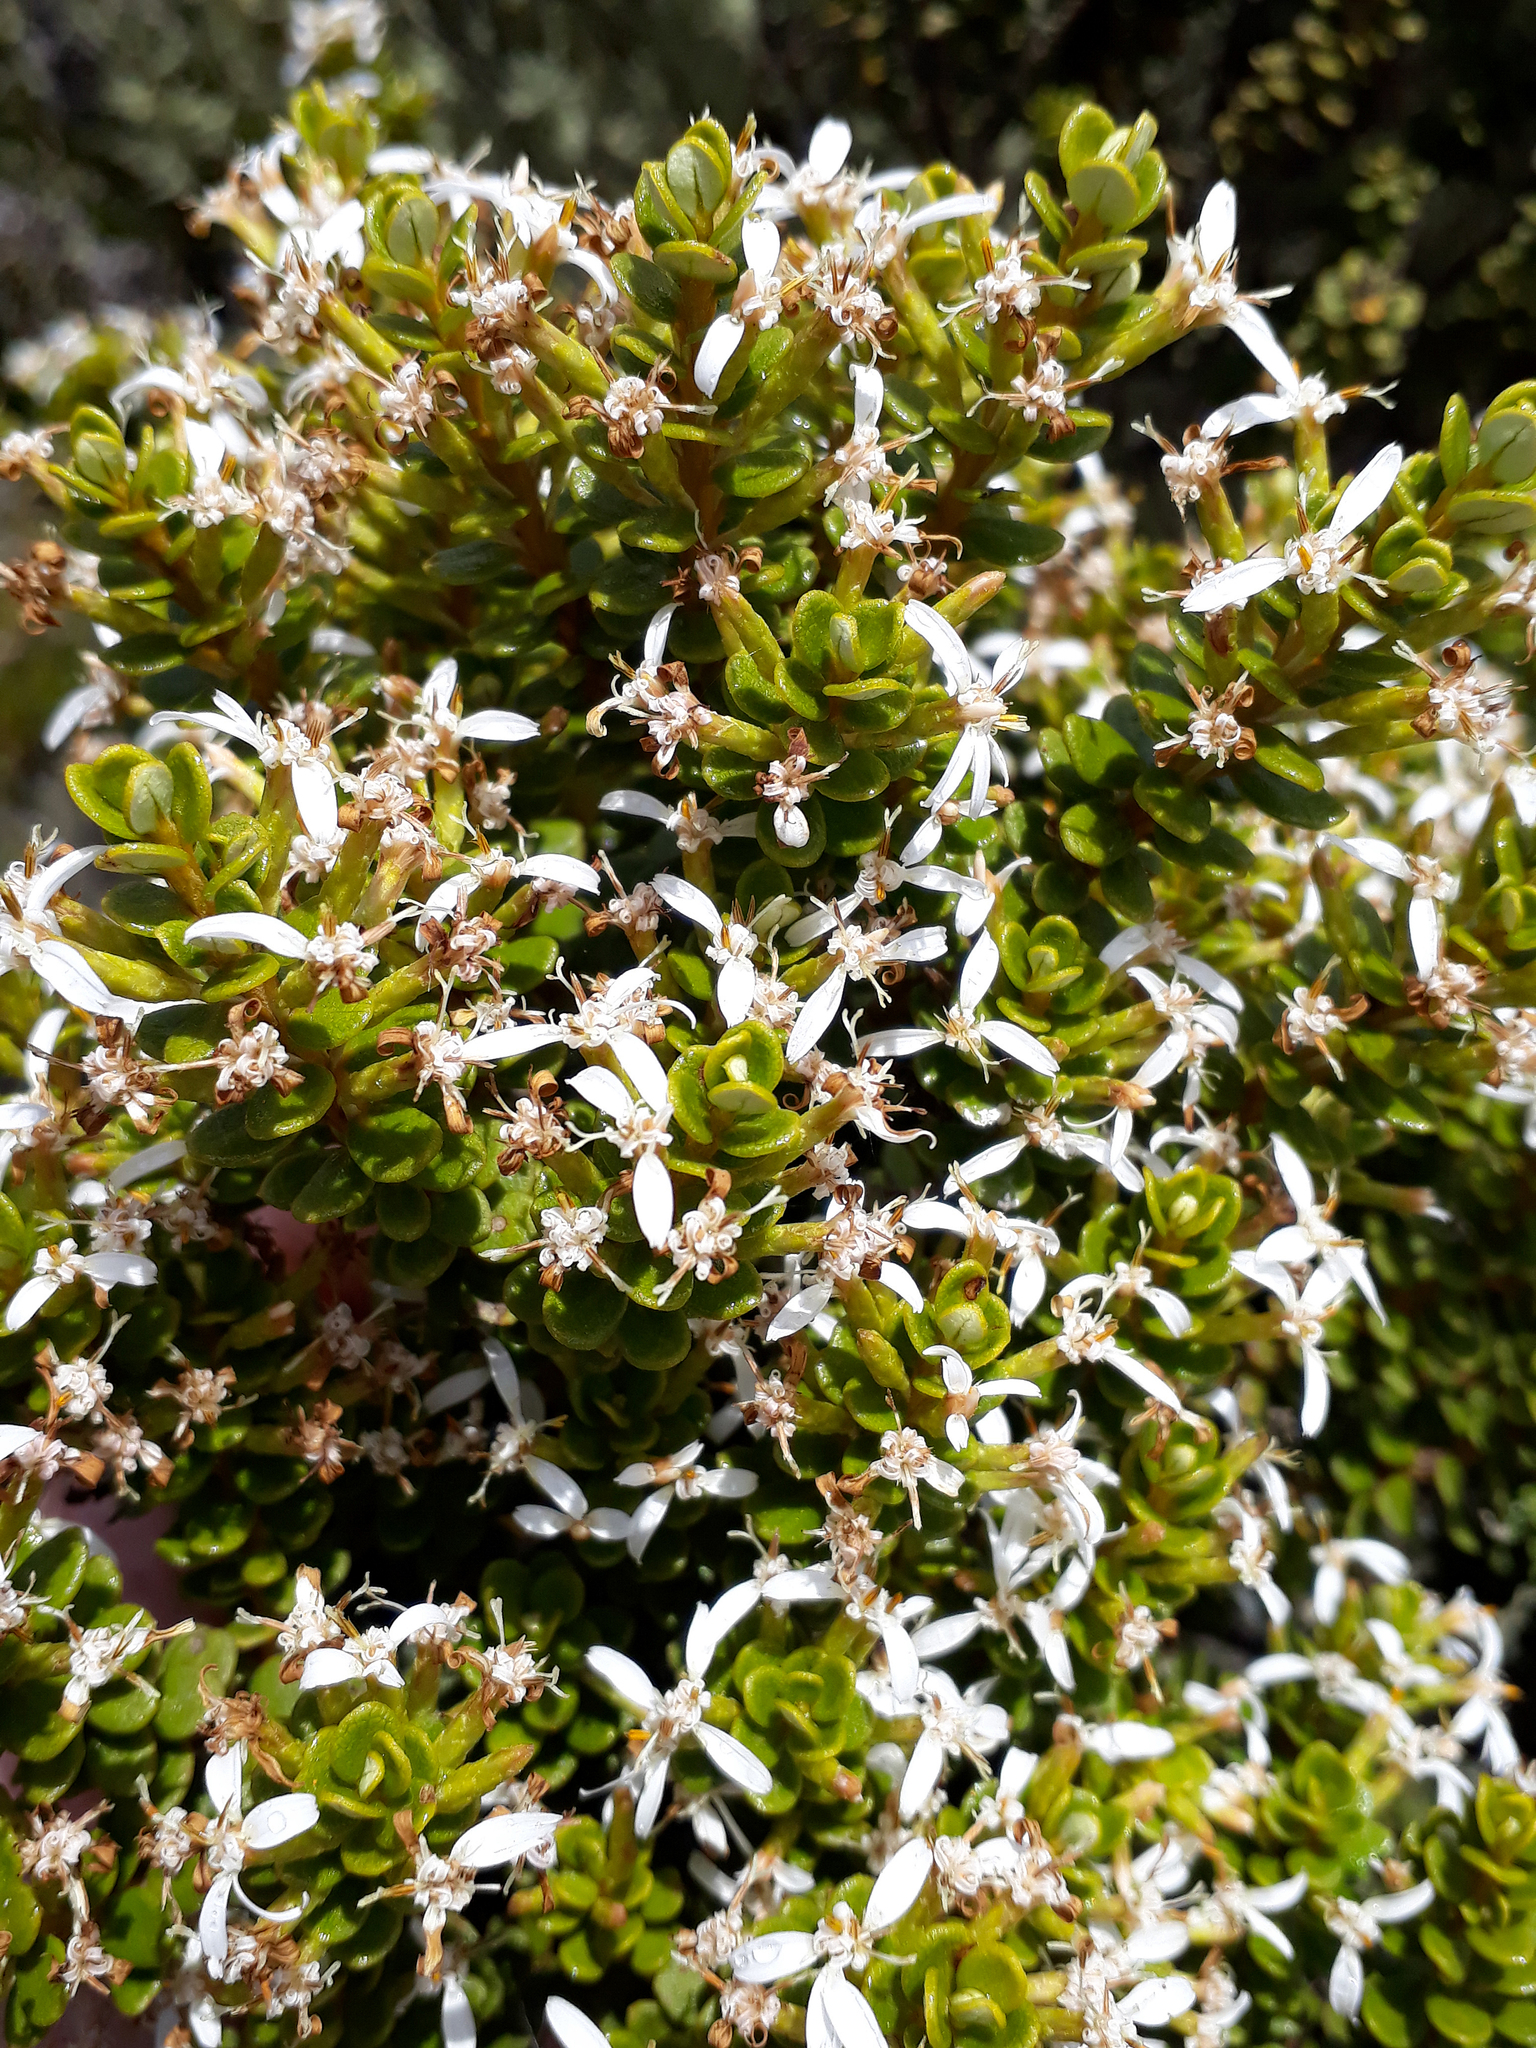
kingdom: Plantae
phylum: Tracheophyta
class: Magnoliopsida
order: Asterales
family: Asteraceae
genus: Olearia
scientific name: Olearia nummularifolia
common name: Sticky daisybush
